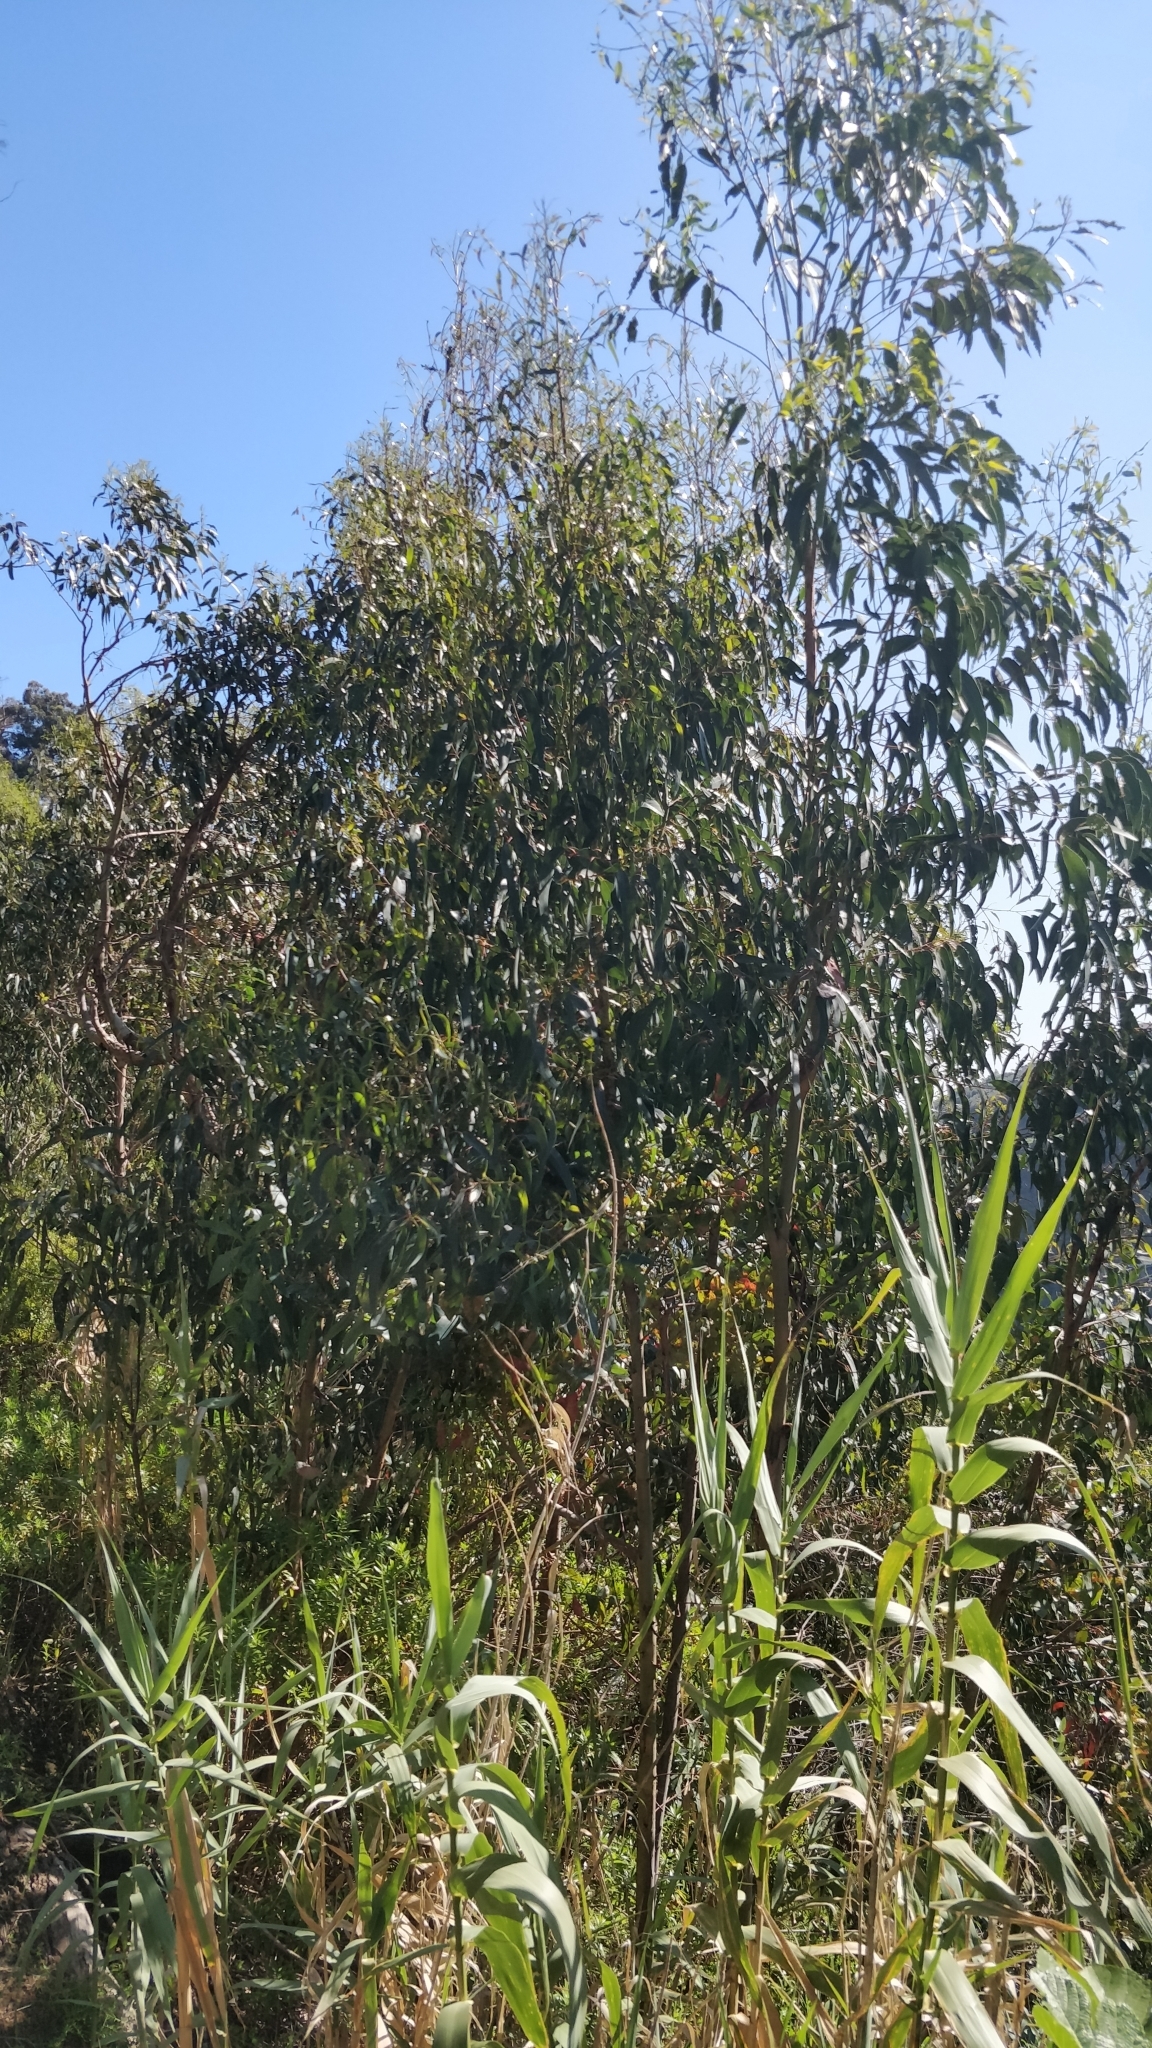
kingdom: Plantae
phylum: Tracheophyta
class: Magnoliopsida
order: Myrtales
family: Myrtaceae
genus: Eucalyptus
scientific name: Eucalyptus globulus
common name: Southern blue-gum
